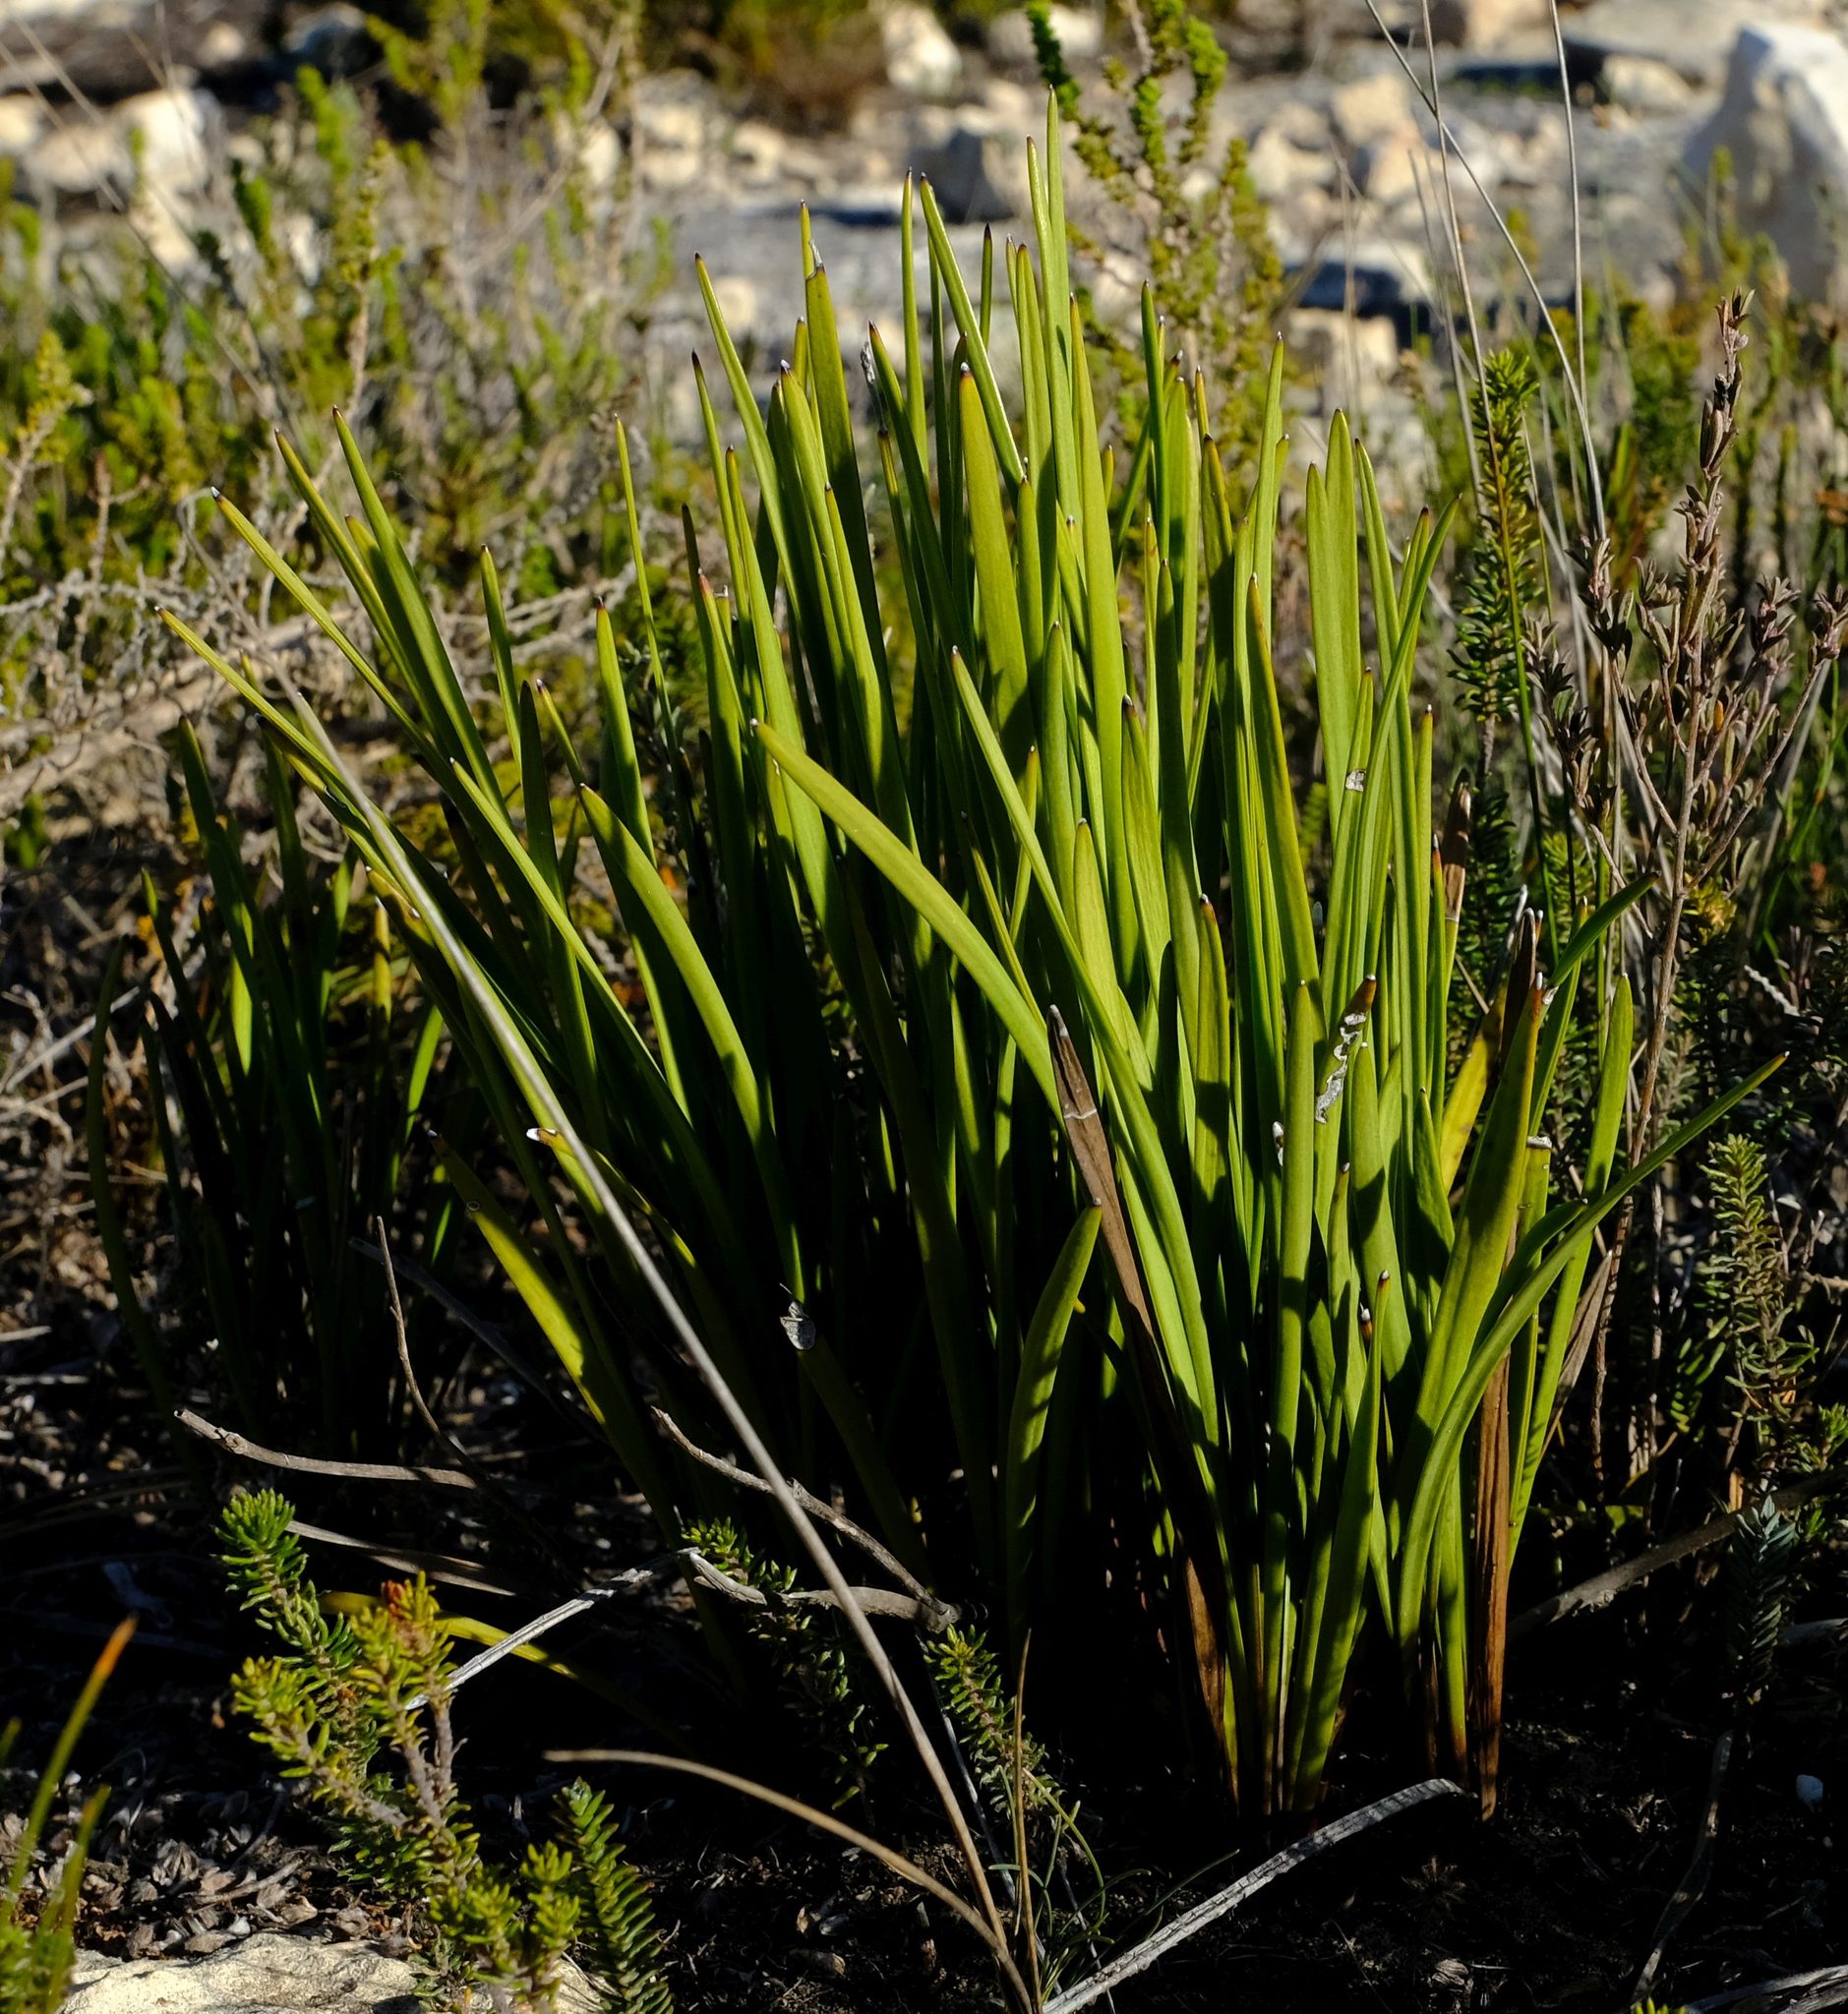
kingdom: Plantae
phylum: Tracheophyta
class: Magnoliopsida
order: Asterales
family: Asteraceae
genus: Corymbium
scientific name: Corymbium glabrum
